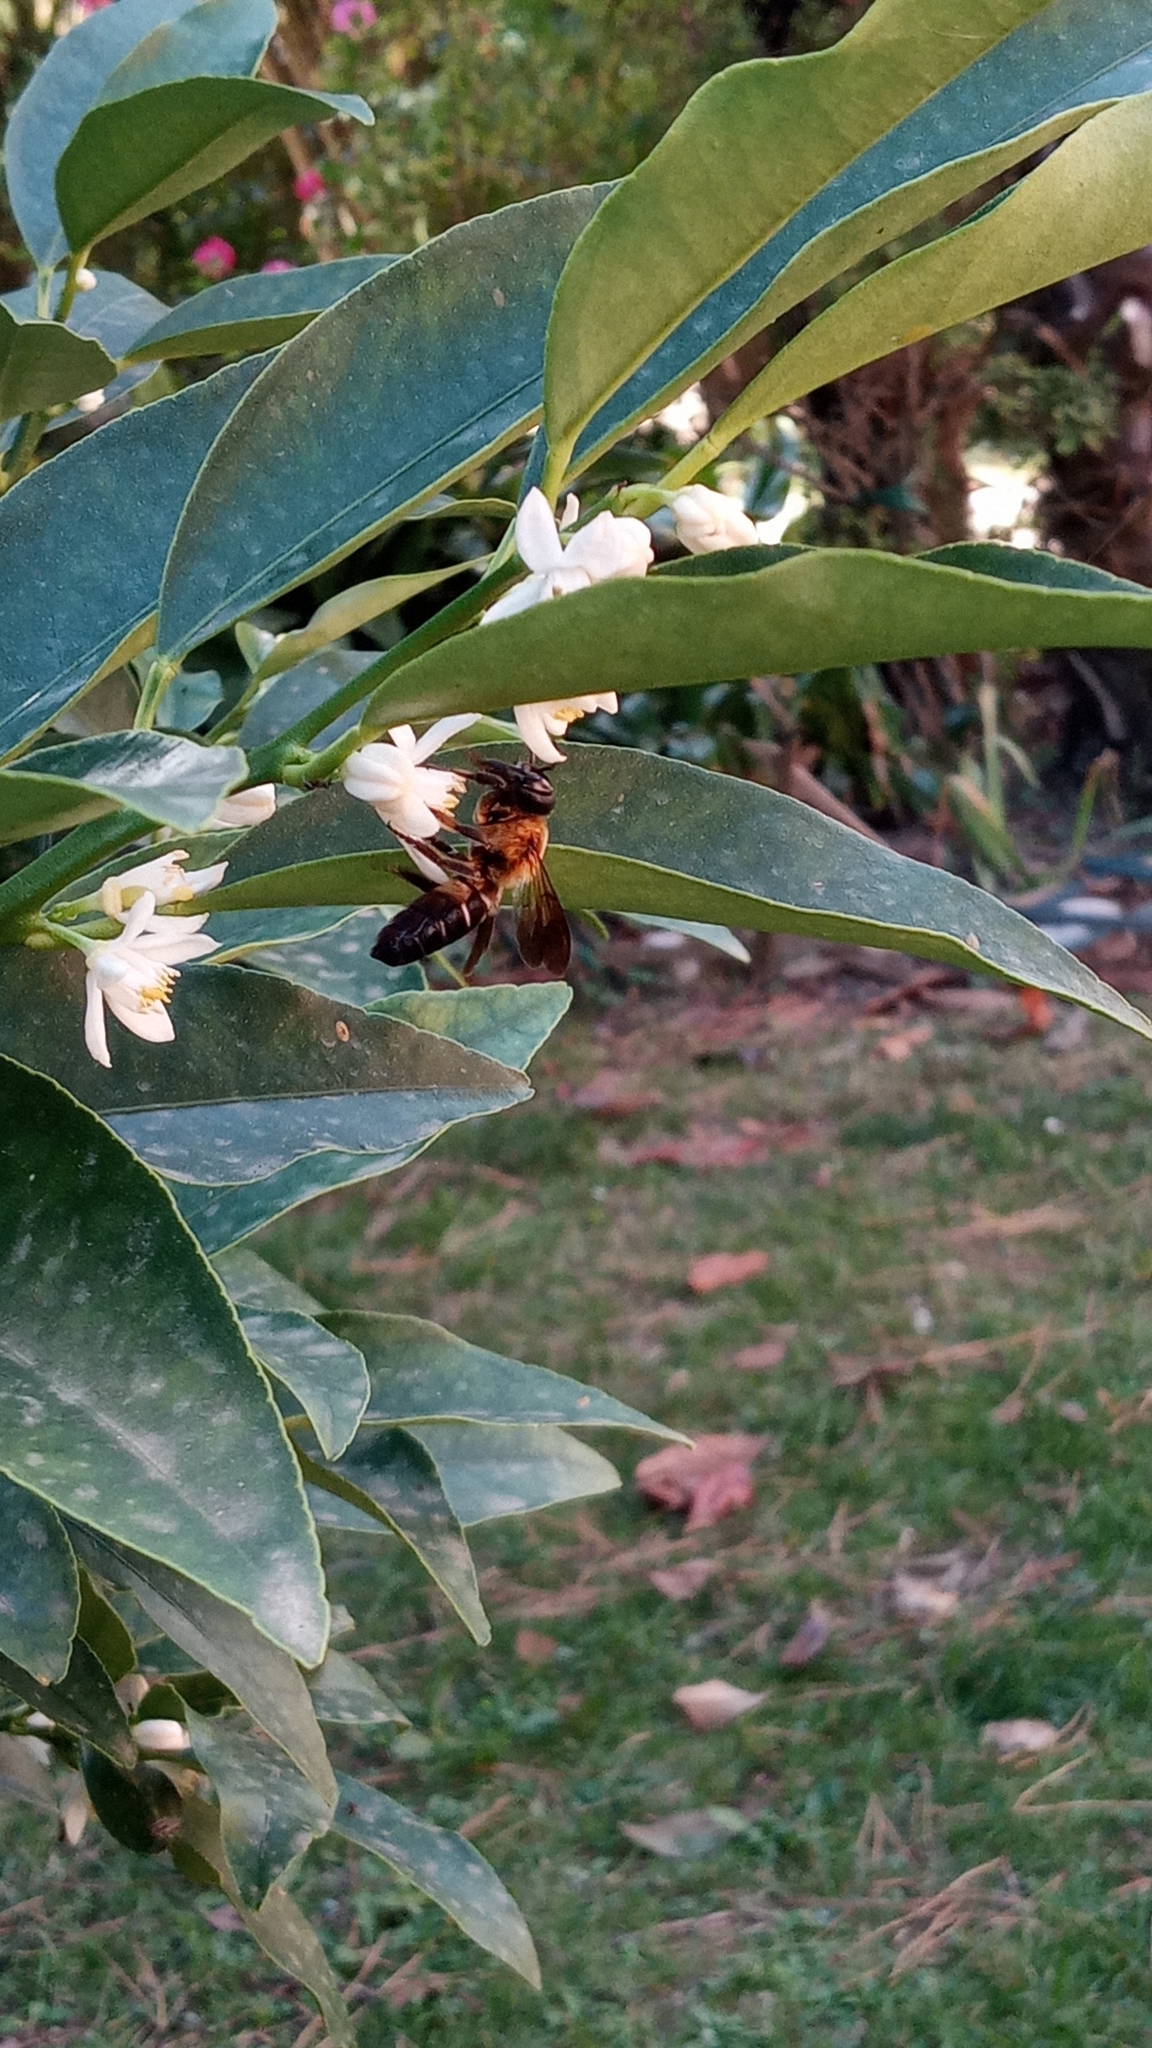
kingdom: Animalia
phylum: Arthropoda
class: Insecta
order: Hymenoptera
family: Megachilidae
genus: Megachile
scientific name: Megachile sculpturalis
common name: Sculptured resin bee
